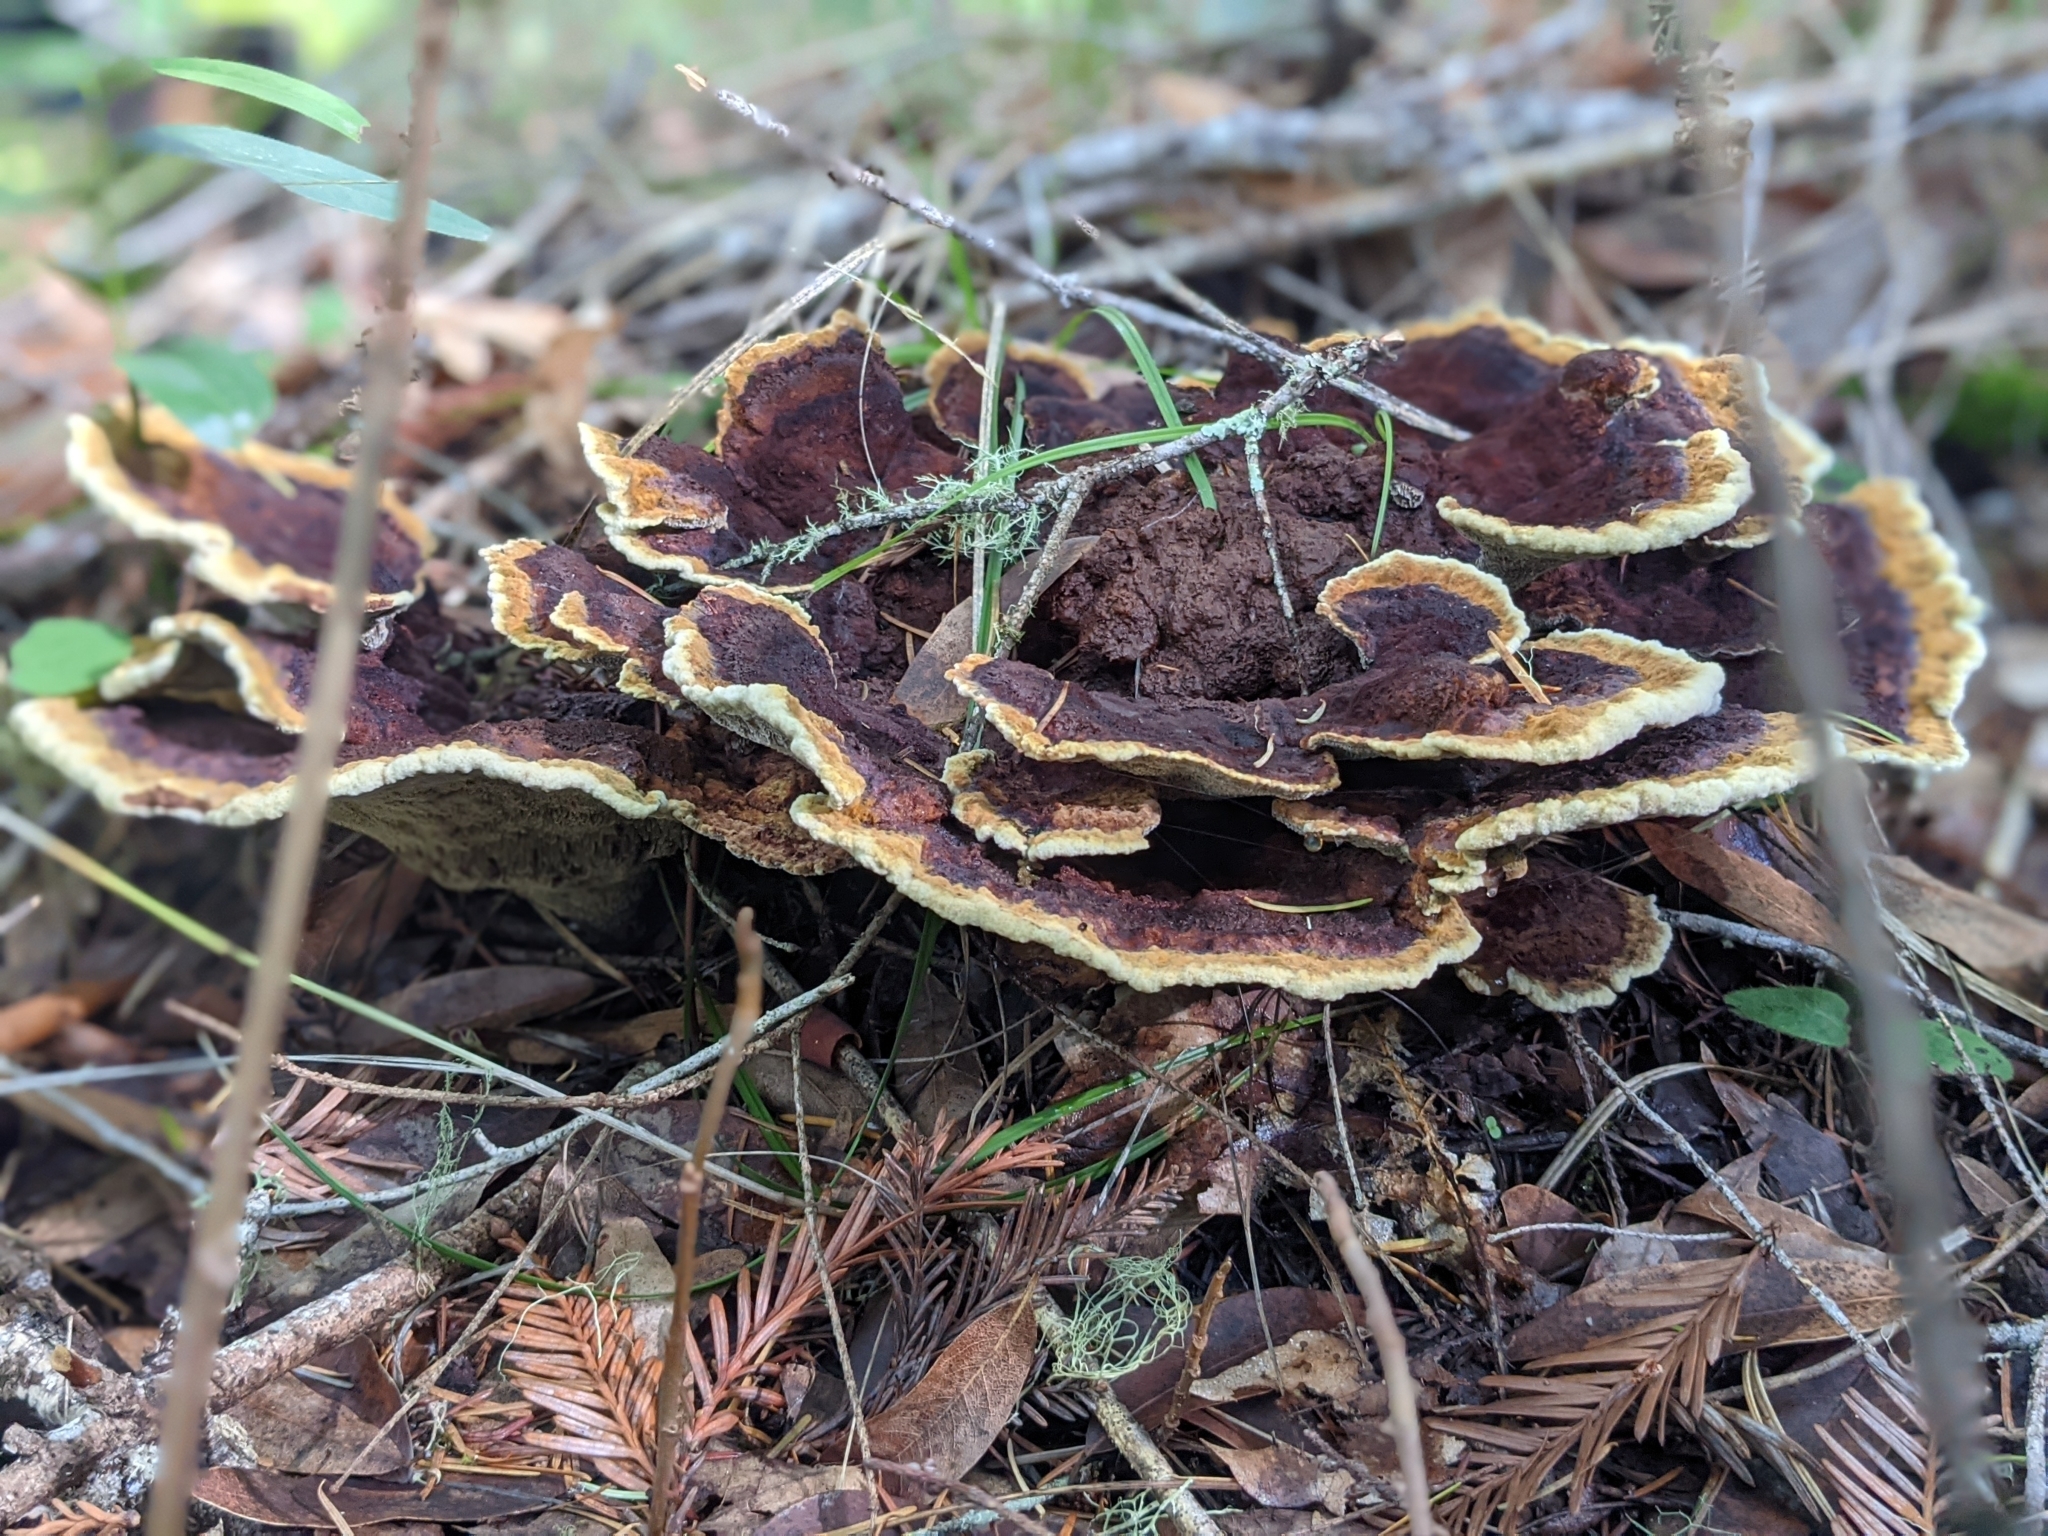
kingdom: Fungi
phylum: Basidiomycota
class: Agaricomycetes
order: Polyporales
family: Laetiporaceae
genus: Phaeolus
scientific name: Phaeolus schweinitzii
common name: Dyer's mazegill
